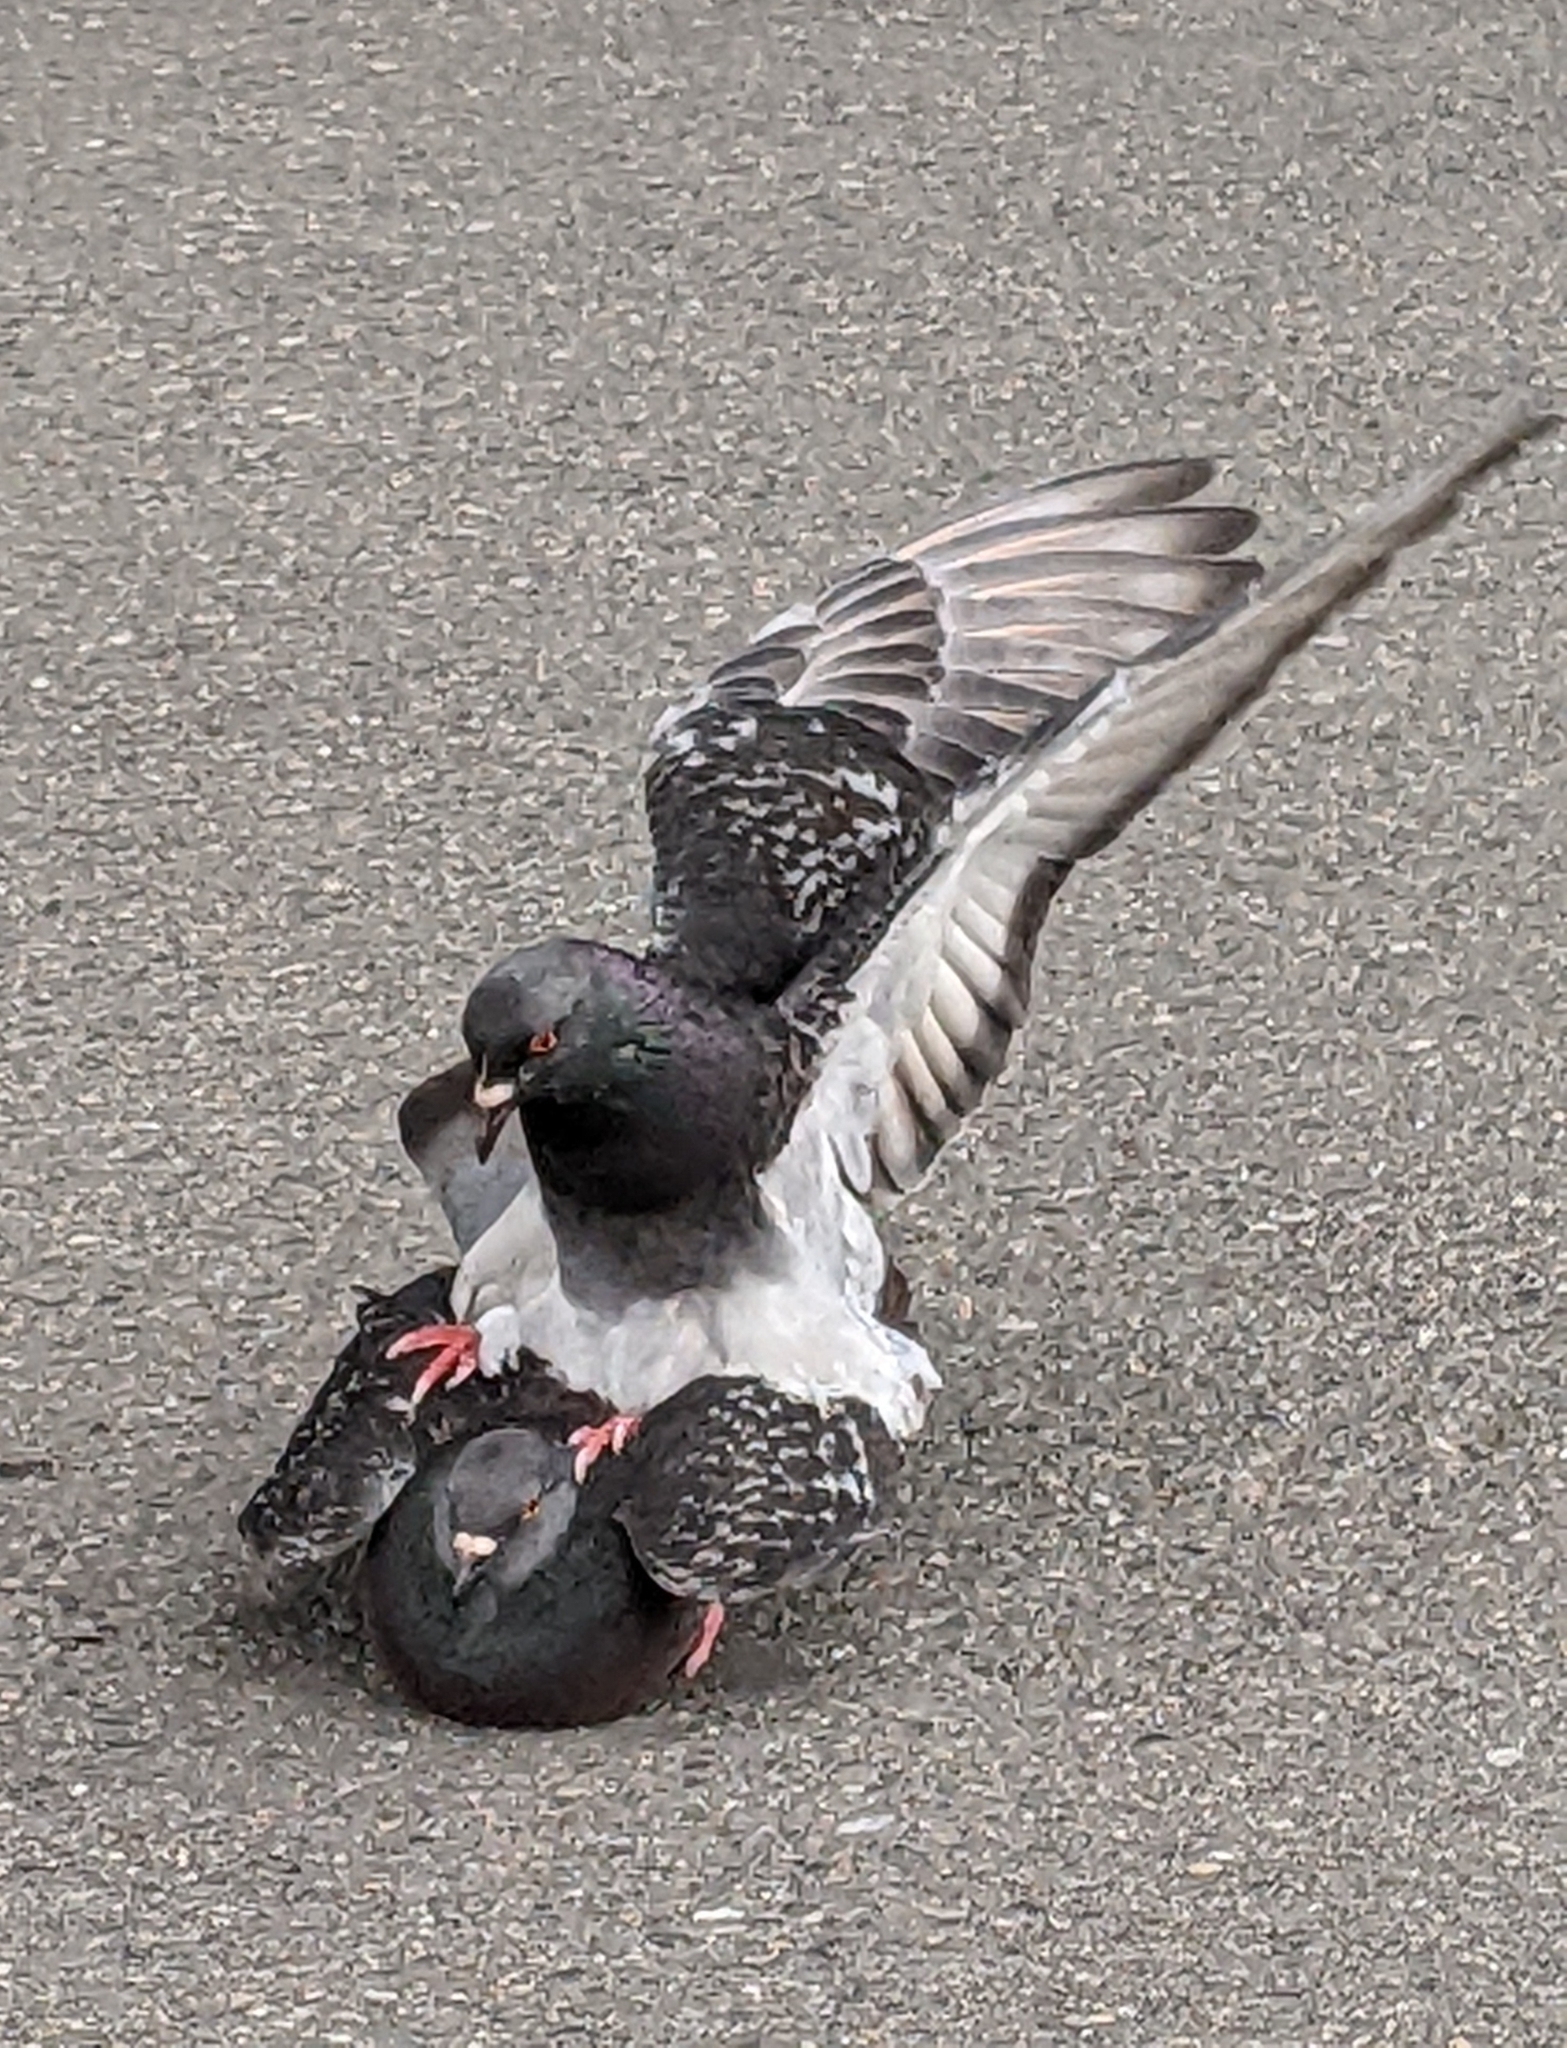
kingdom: Animalia
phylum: Chordata
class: Aves
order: Columbiformes
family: Columbidae
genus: Columba
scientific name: Columba livia
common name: Rock pigeon
